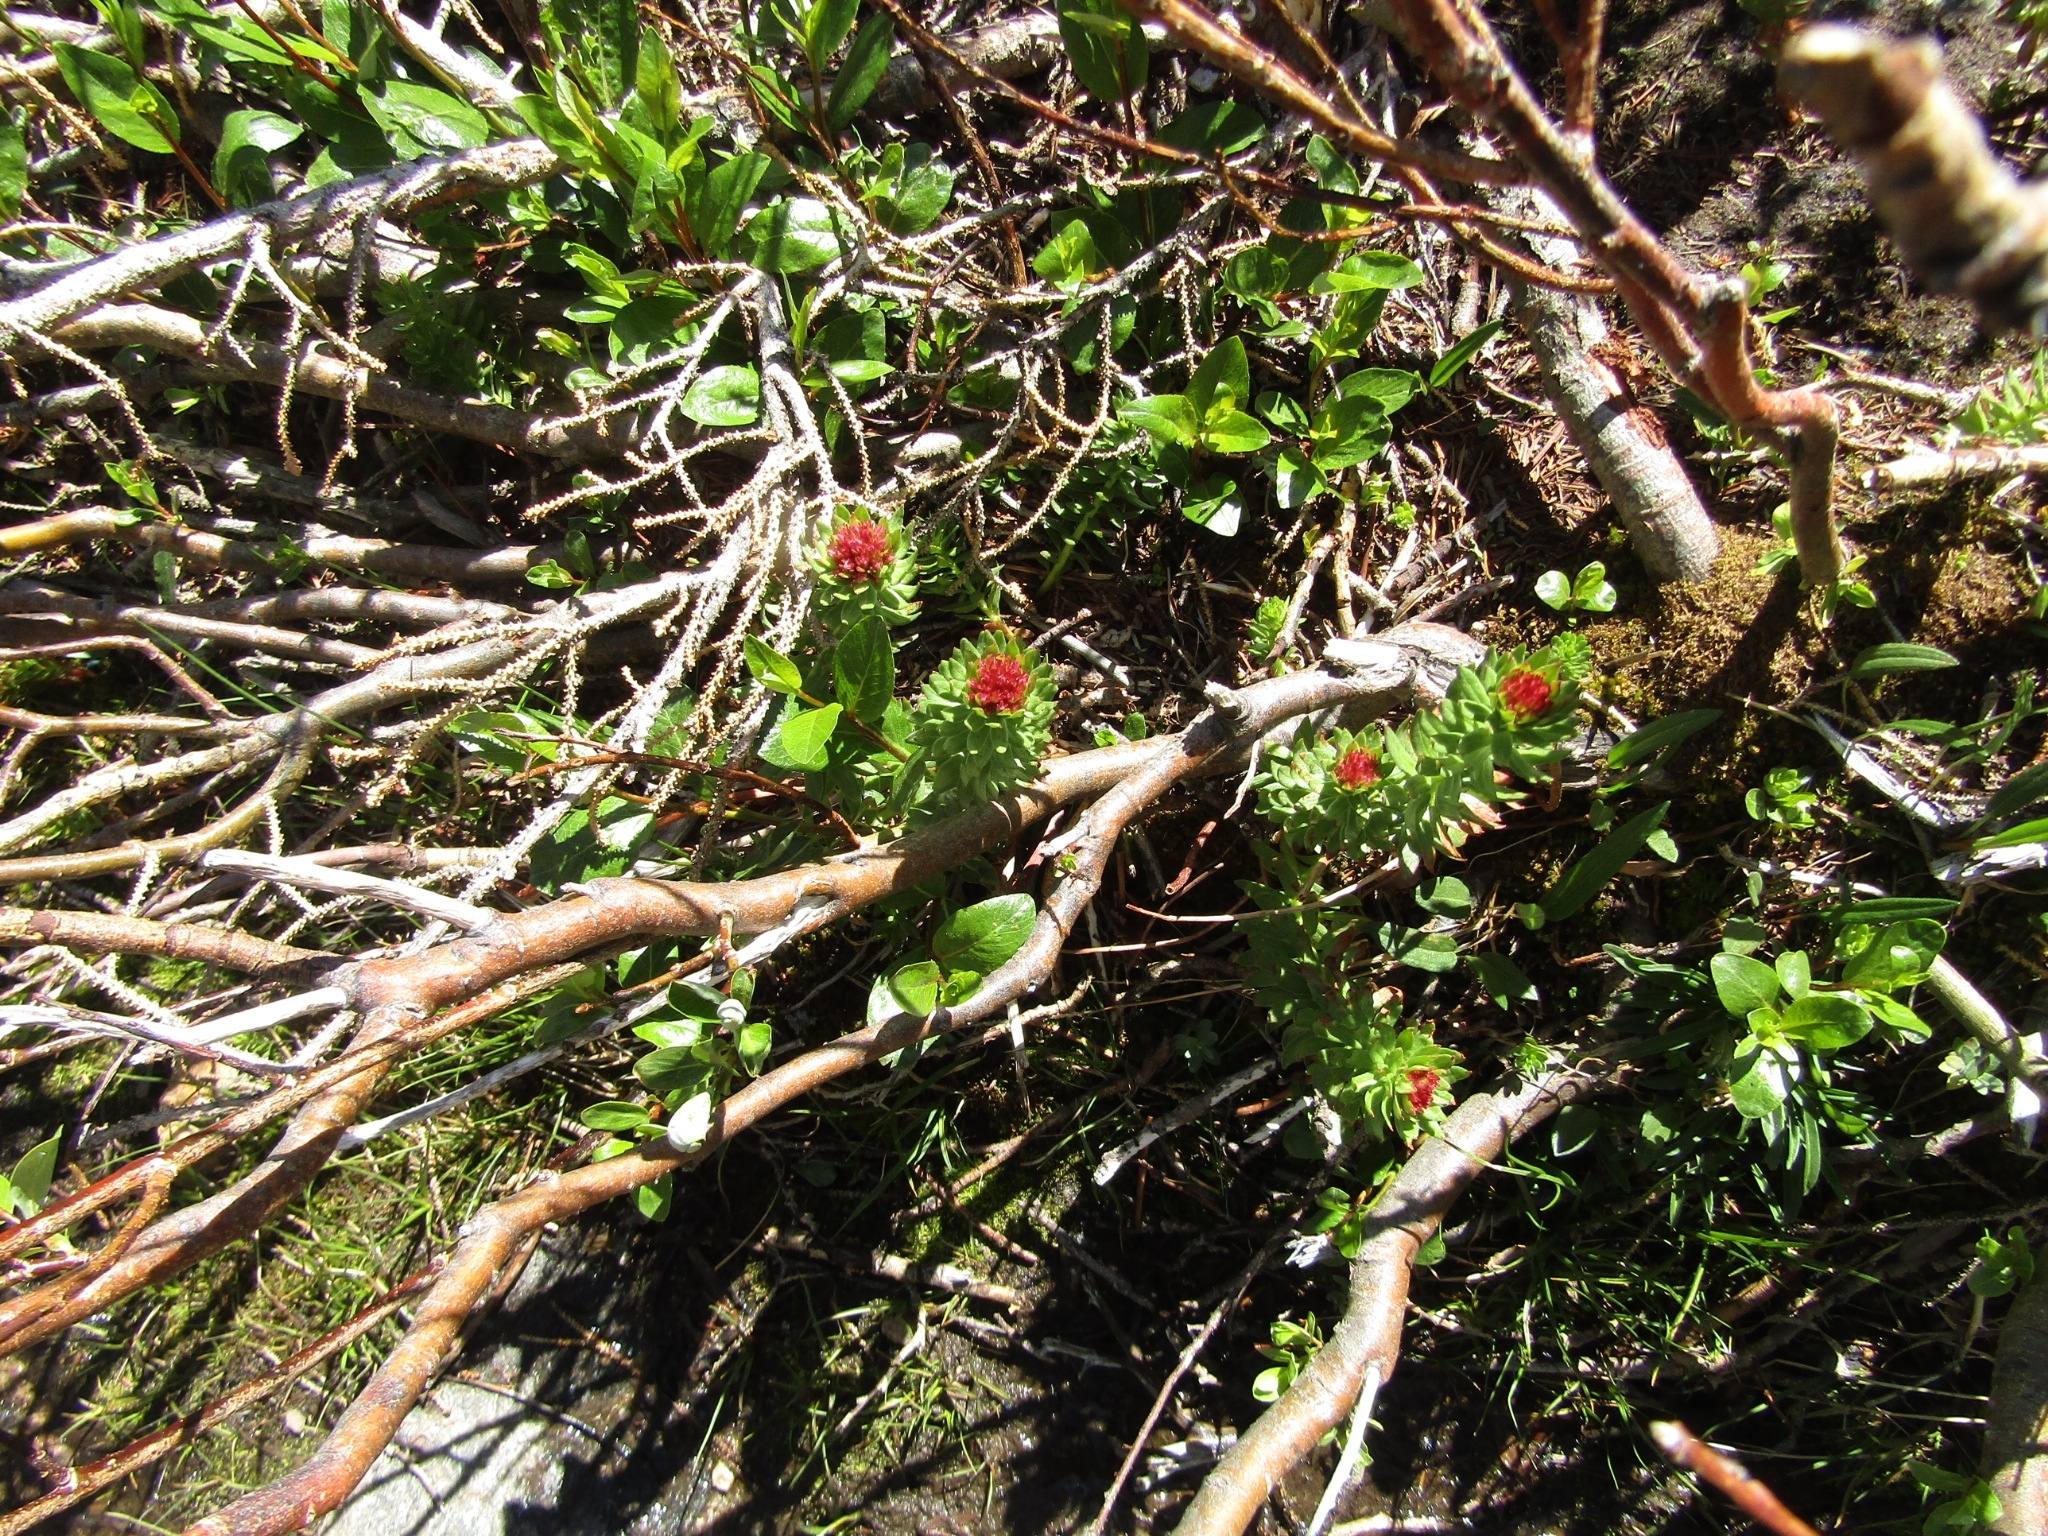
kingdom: Plantae
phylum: Tracheophyta
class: Magnoliopsida
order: Saxifragales
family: Crassulaceae
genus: Rhodiola
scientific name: Rhodiola rhodantha
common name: Red orpine
